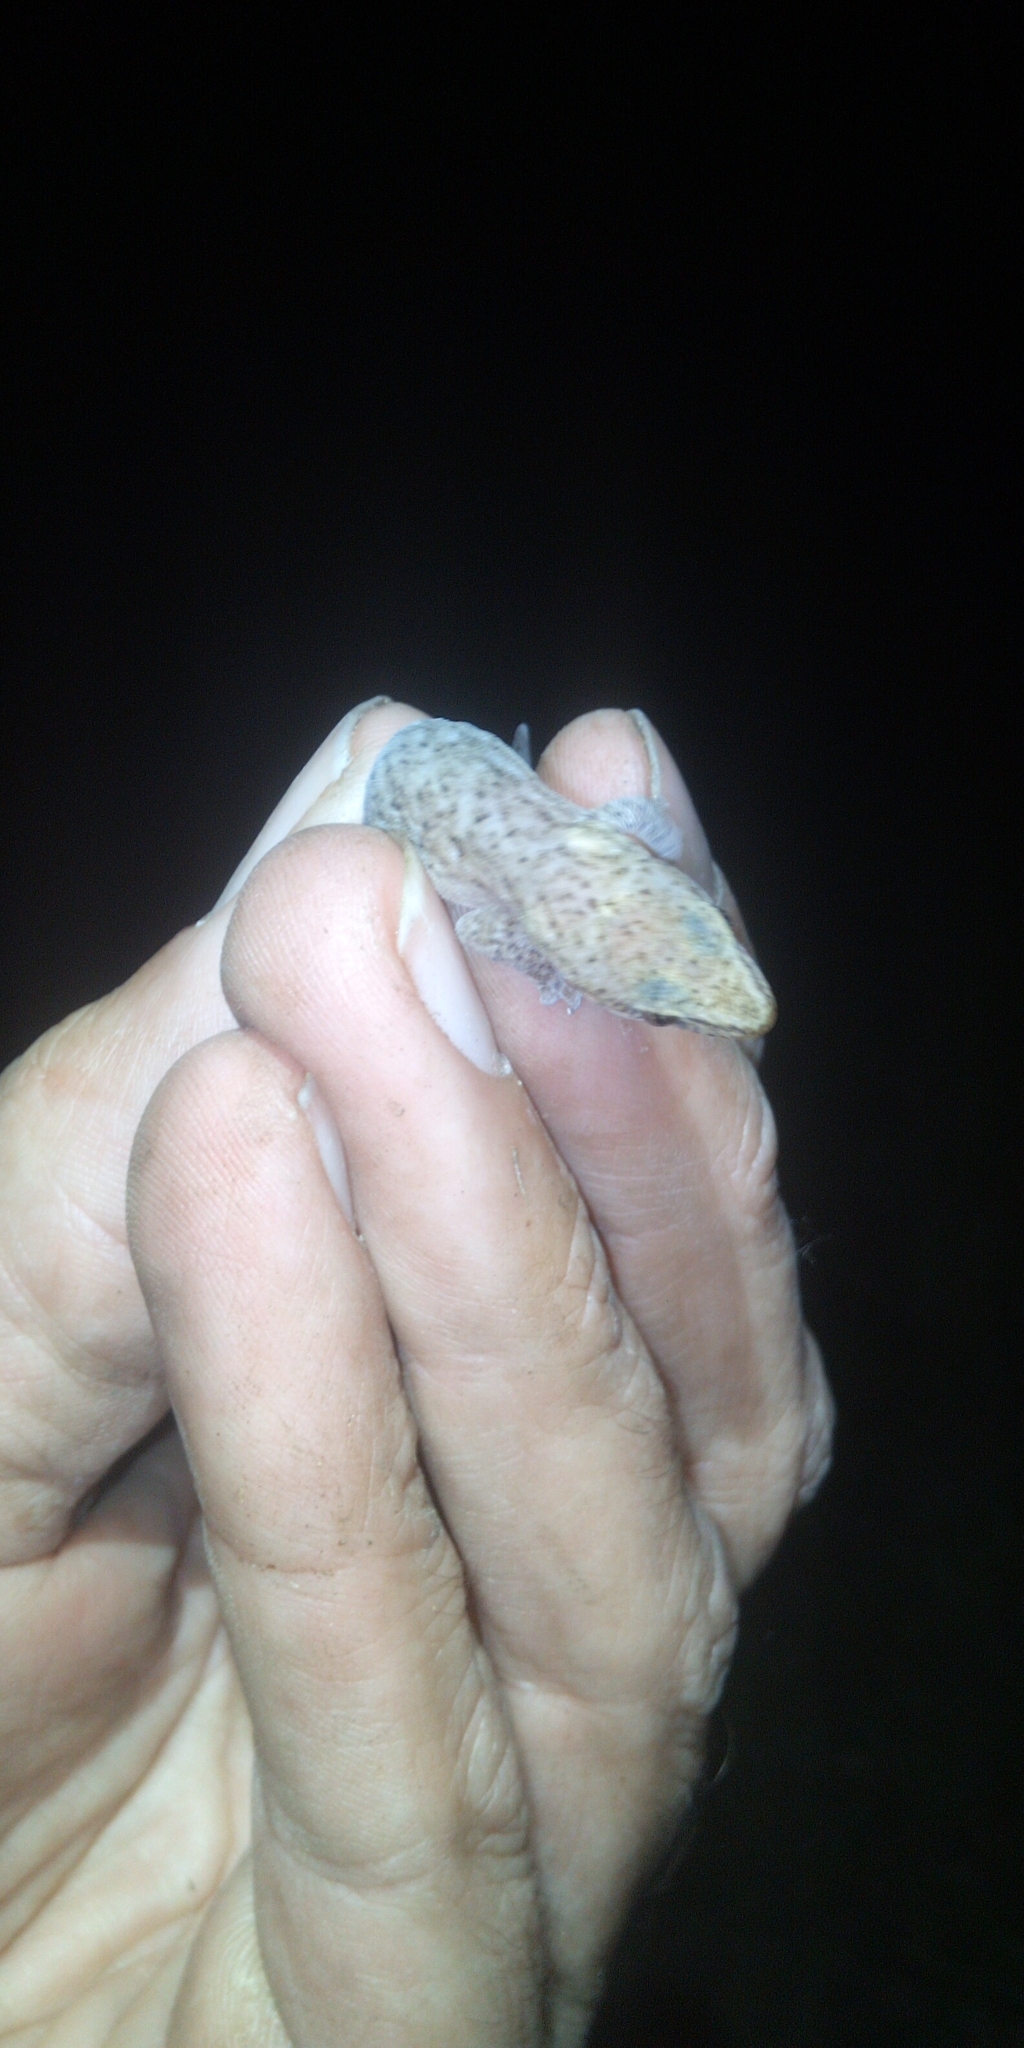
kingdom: Animalia
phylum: Chordata
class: Squamata
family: Gekkonidae
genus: Afrogecko
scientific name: Afrogecko porphyreus
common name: Marbled leaf-toed gecko
